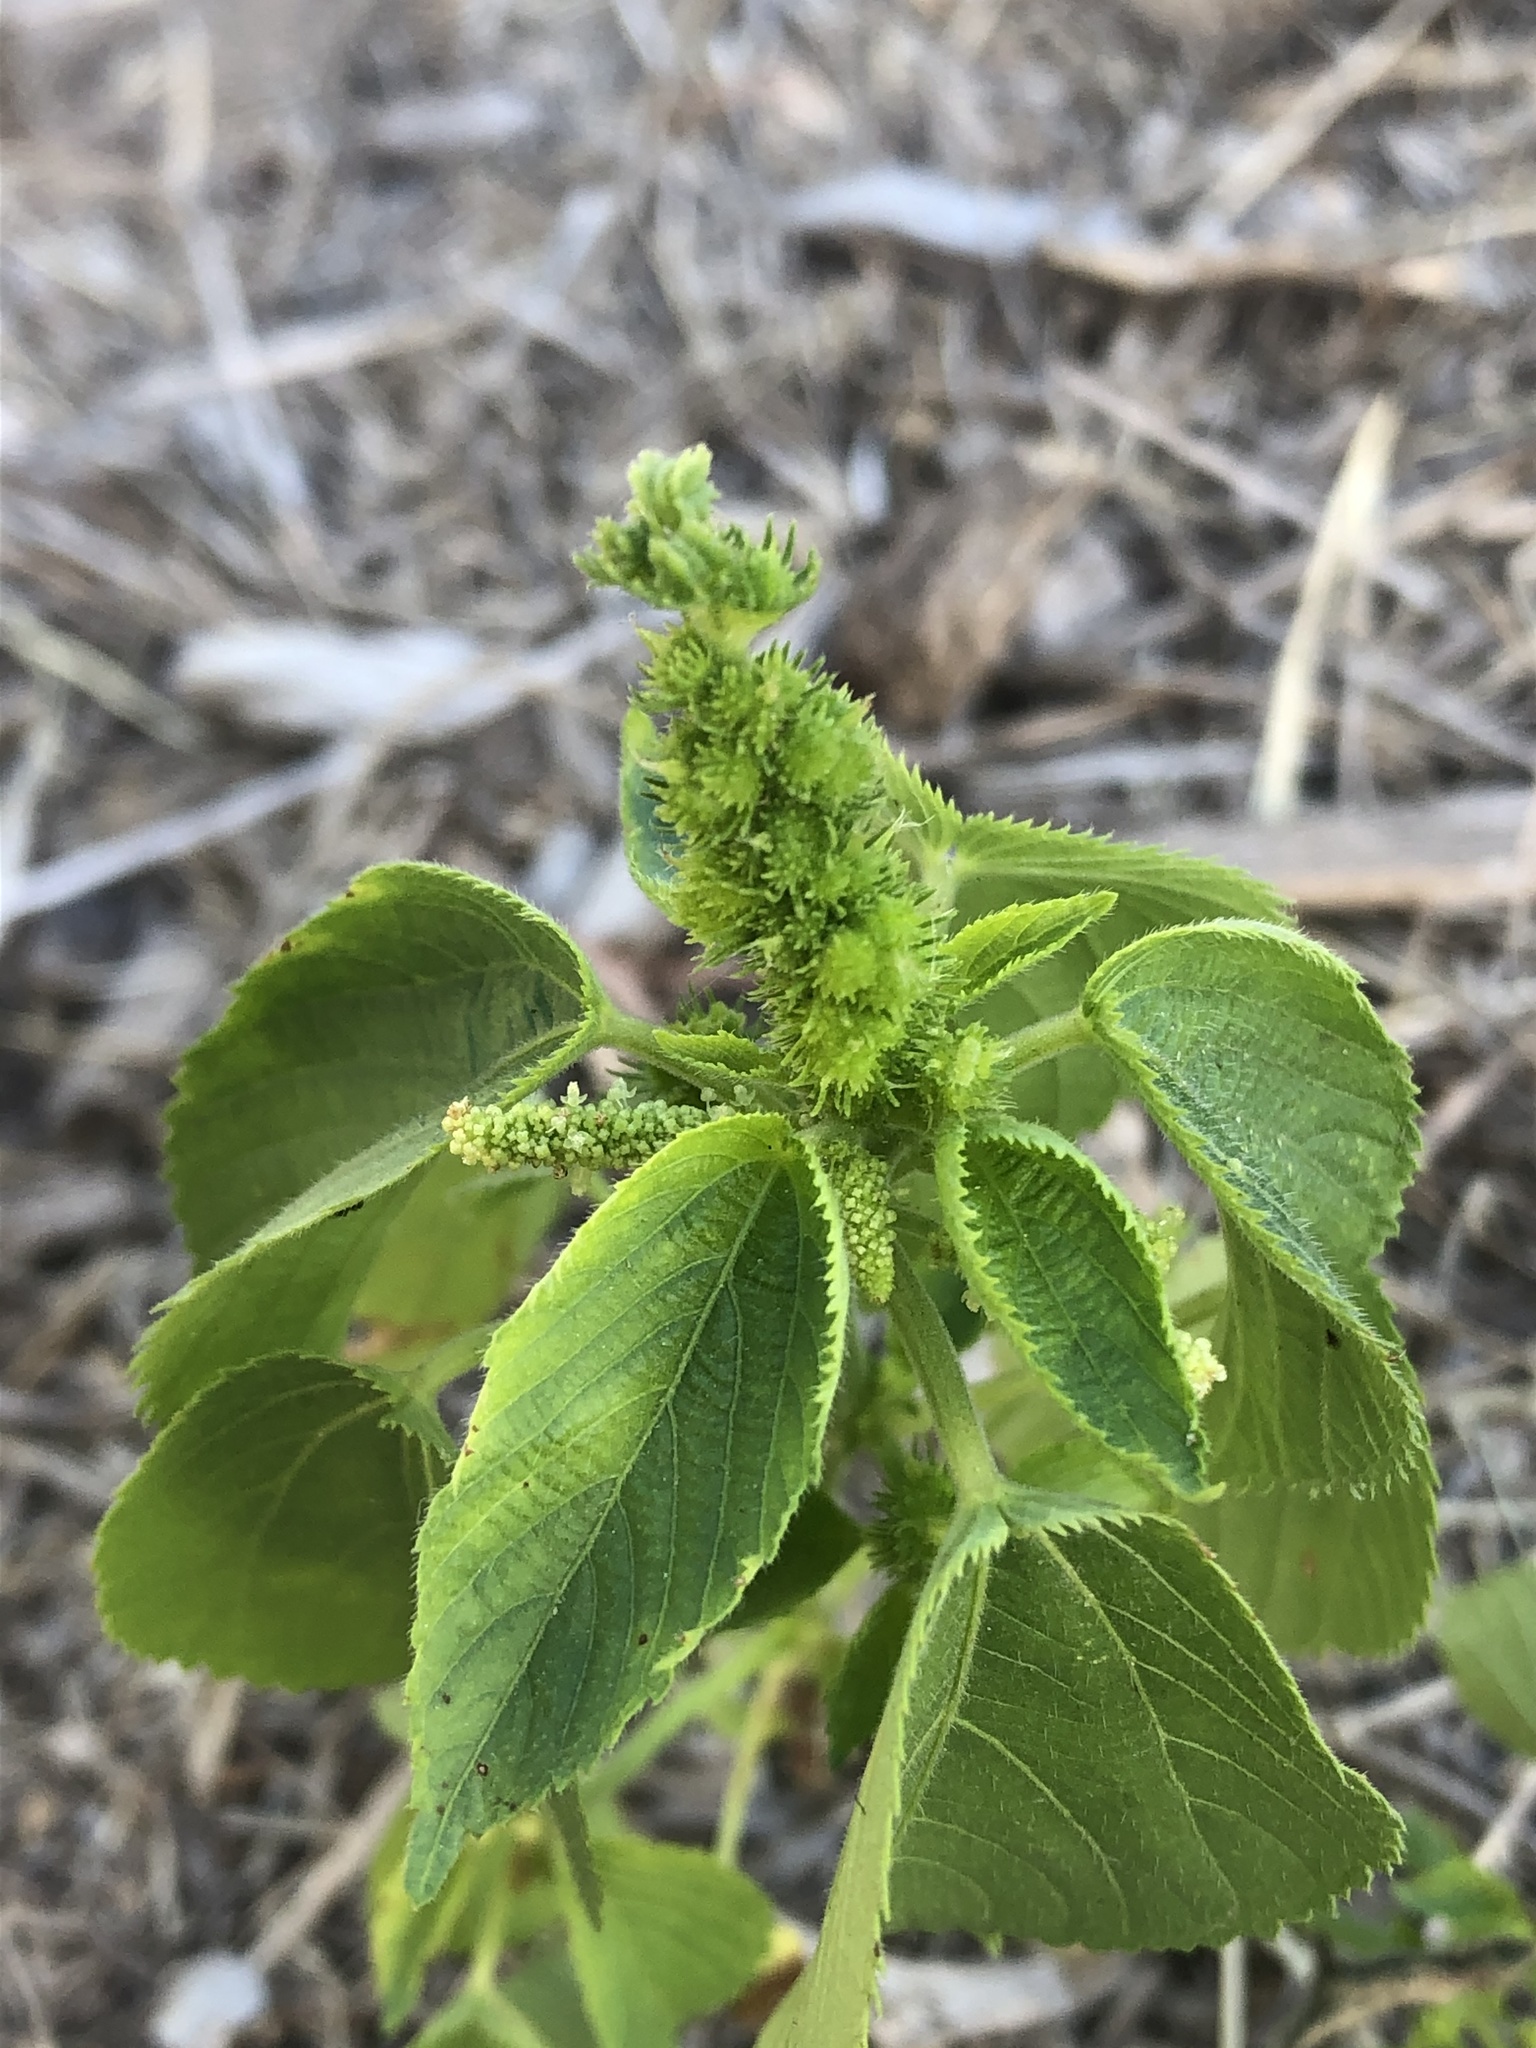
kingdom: Plantae
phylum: Tracheophyta
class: Magnoliopsida
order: Malpighiales
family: Euphorbiaceae
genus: Acalypha
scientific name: Acalypha ostryifolia
